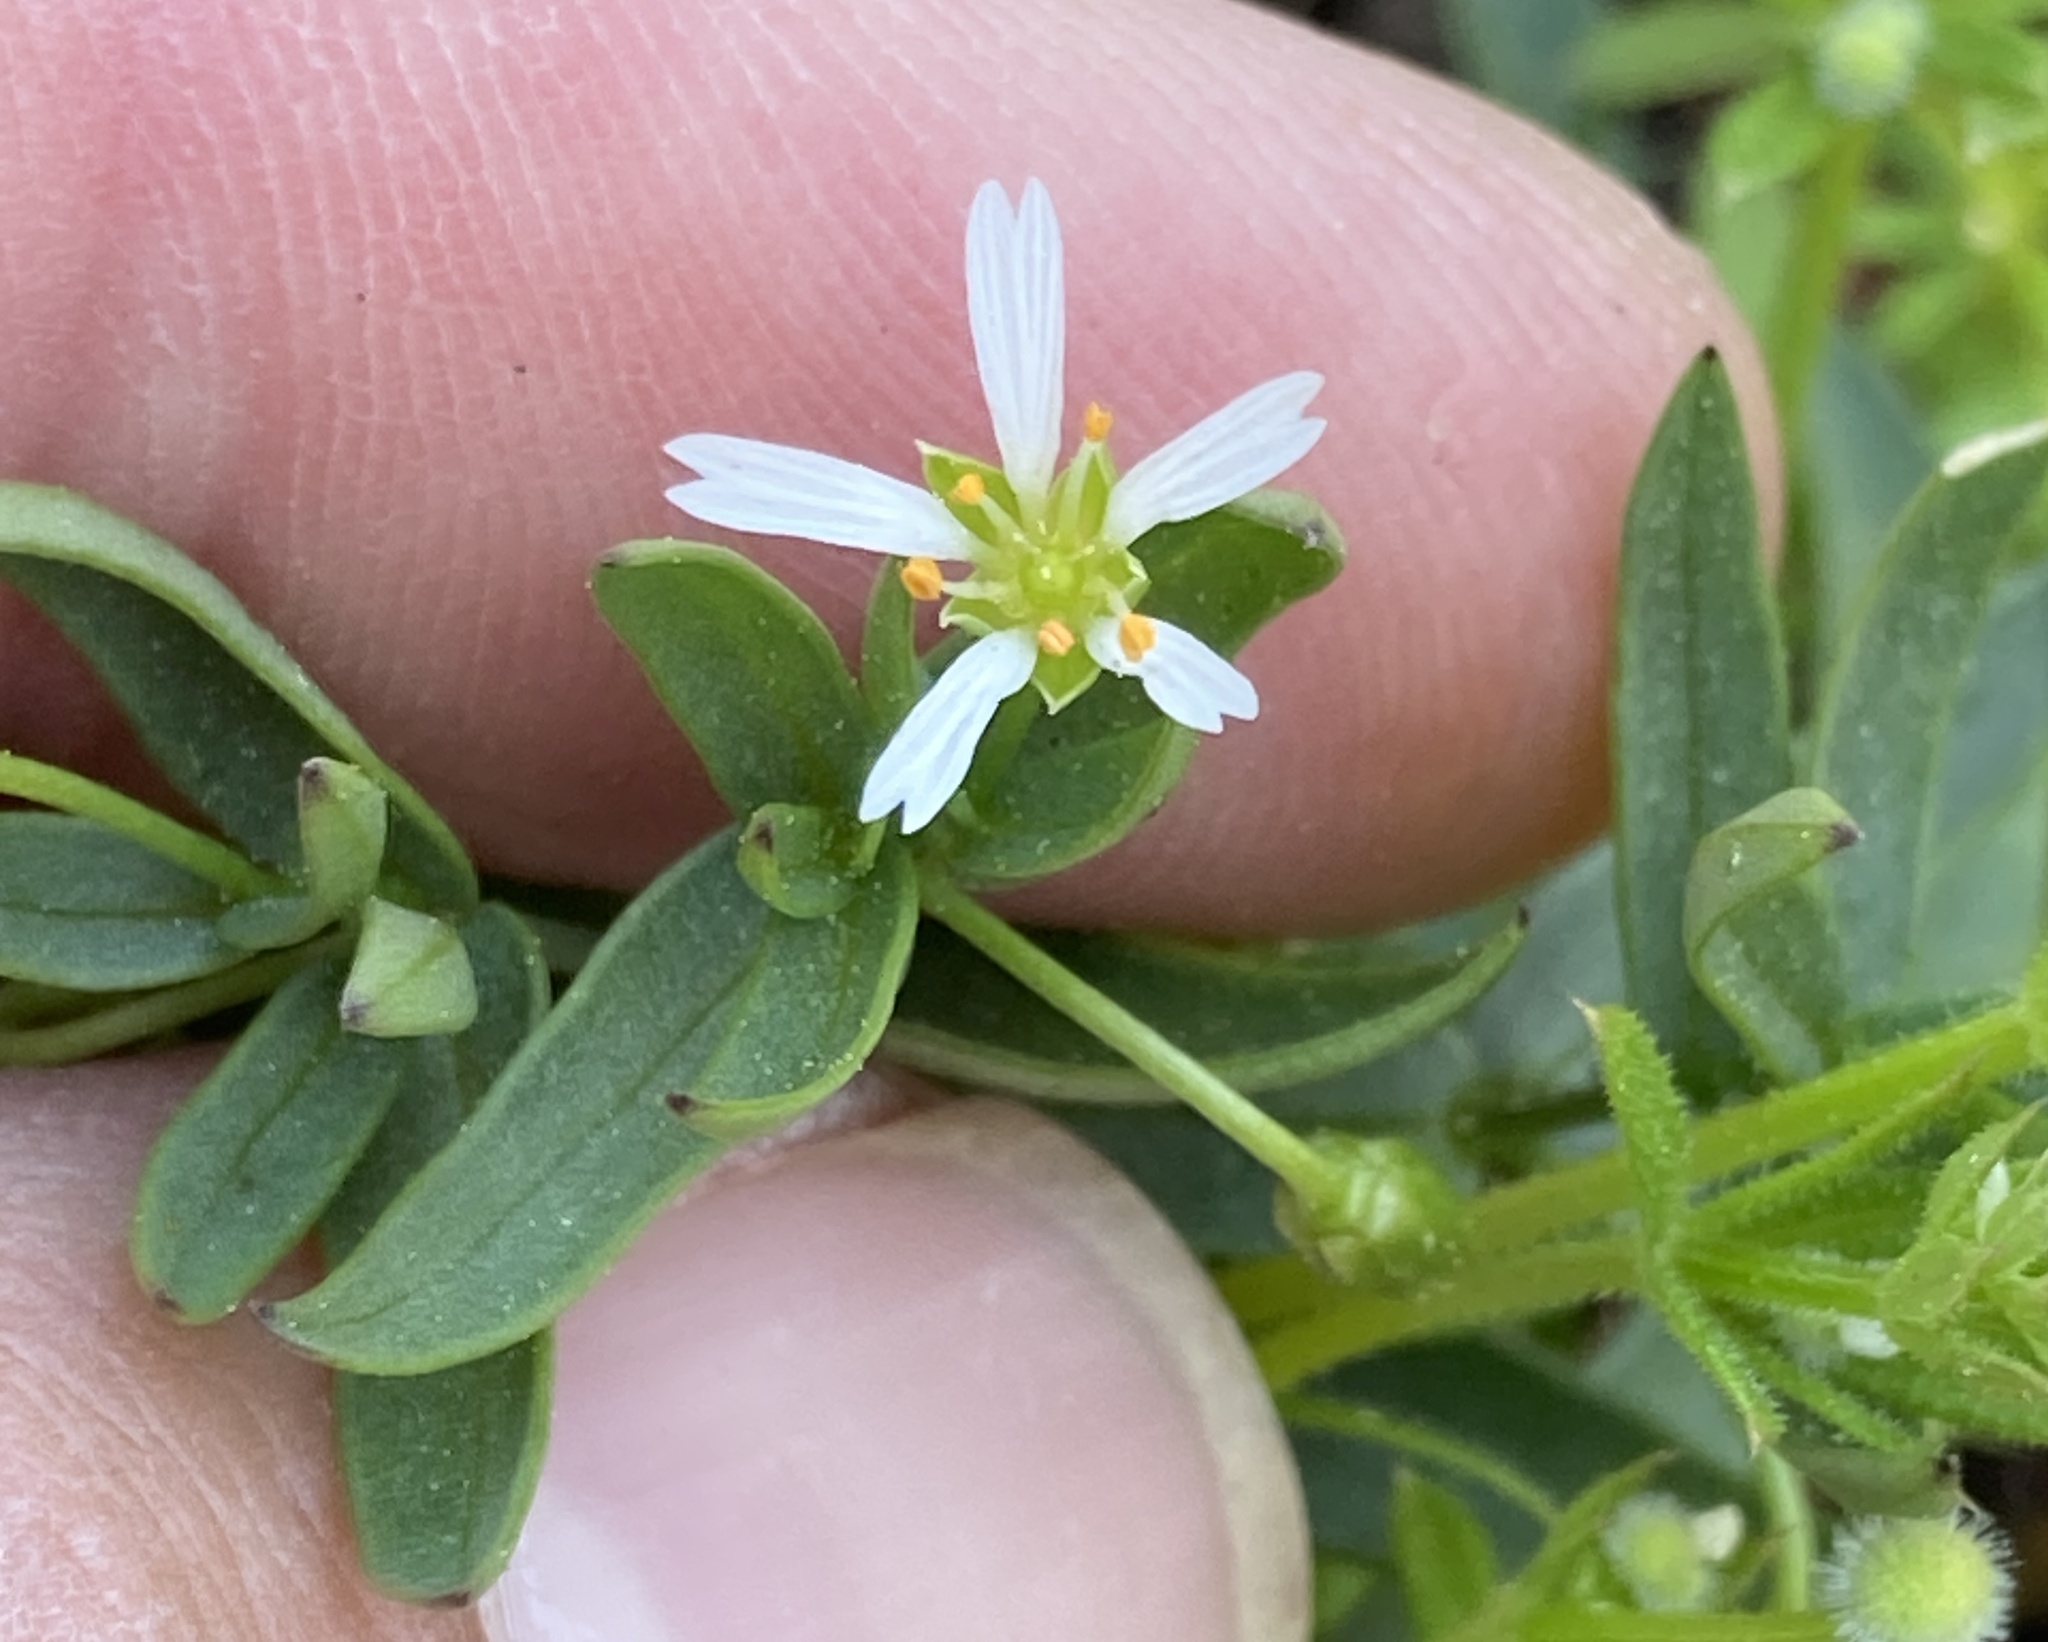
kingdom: Plantae
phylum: Tracheophyta
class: Magnoliopsida
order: Caryophyllales
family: Caryophyllaceae
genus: Hartmaniella
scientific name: Hartmaniella sierrae
